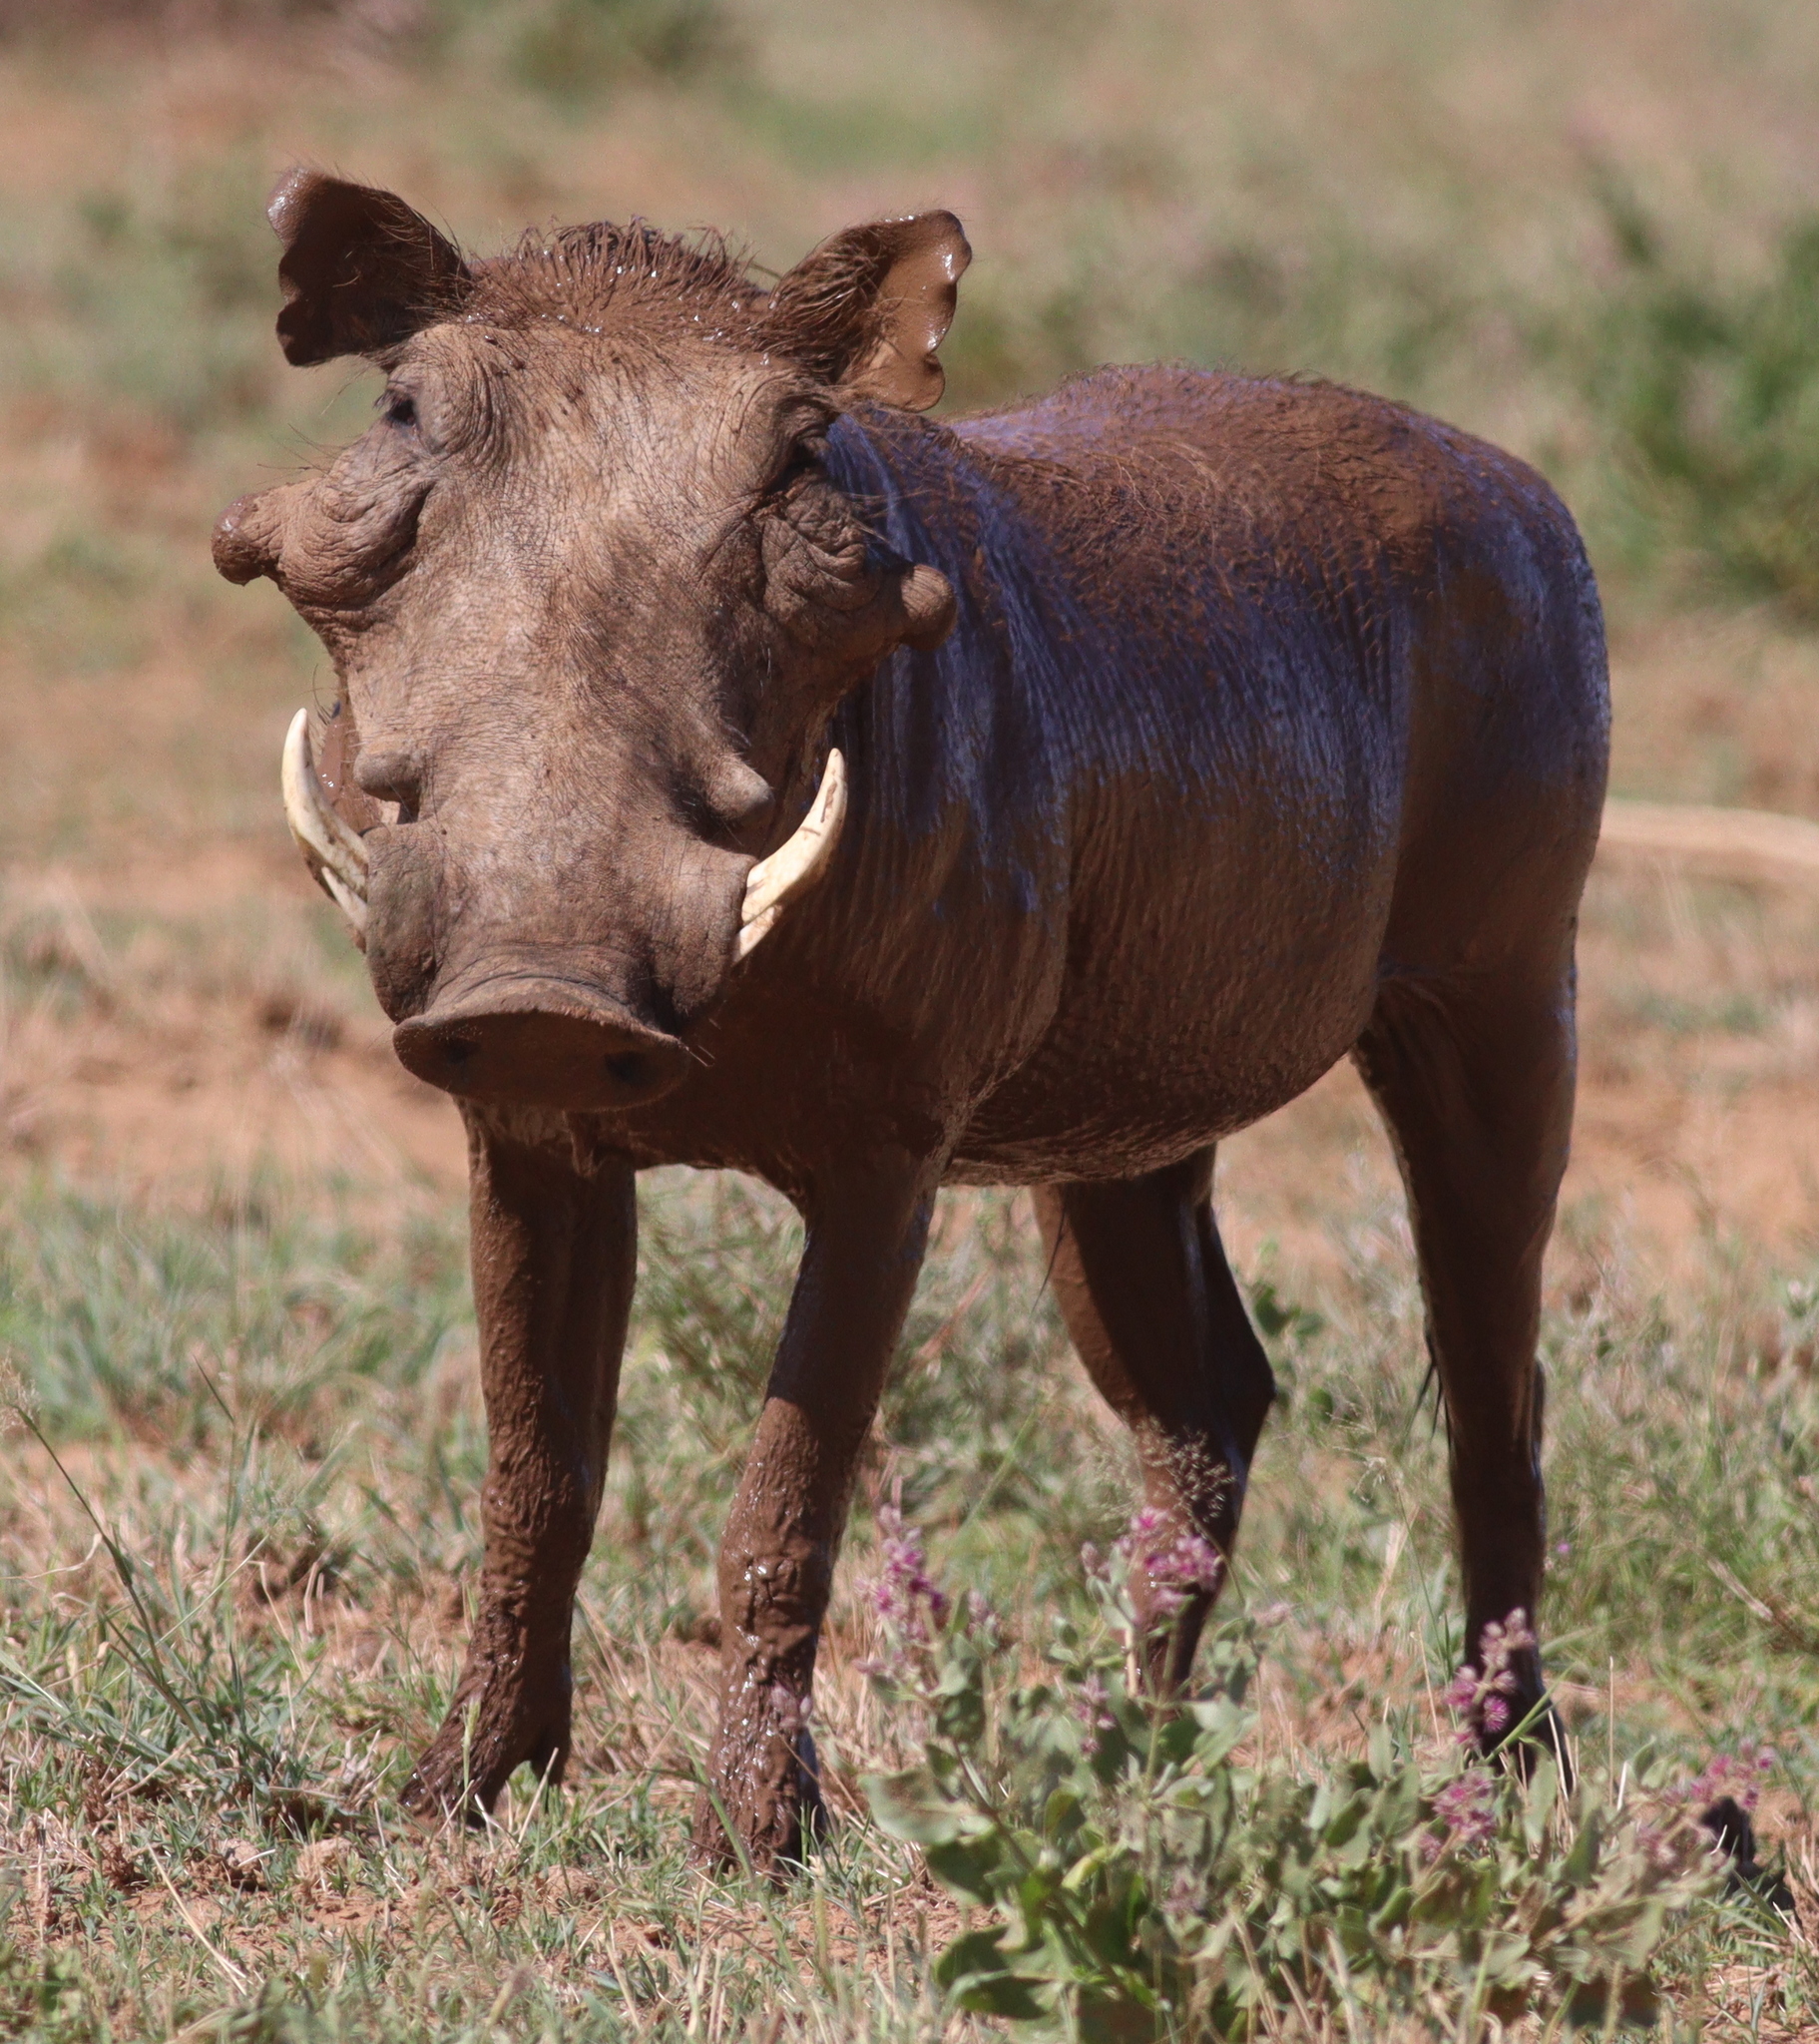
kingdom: Animalia
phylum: Chordata
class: Mammalia
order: Artiodactyla
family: Suidae
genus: Phacochoerus
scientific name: Phacochoerus aethiopicus
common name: Desert warthog
